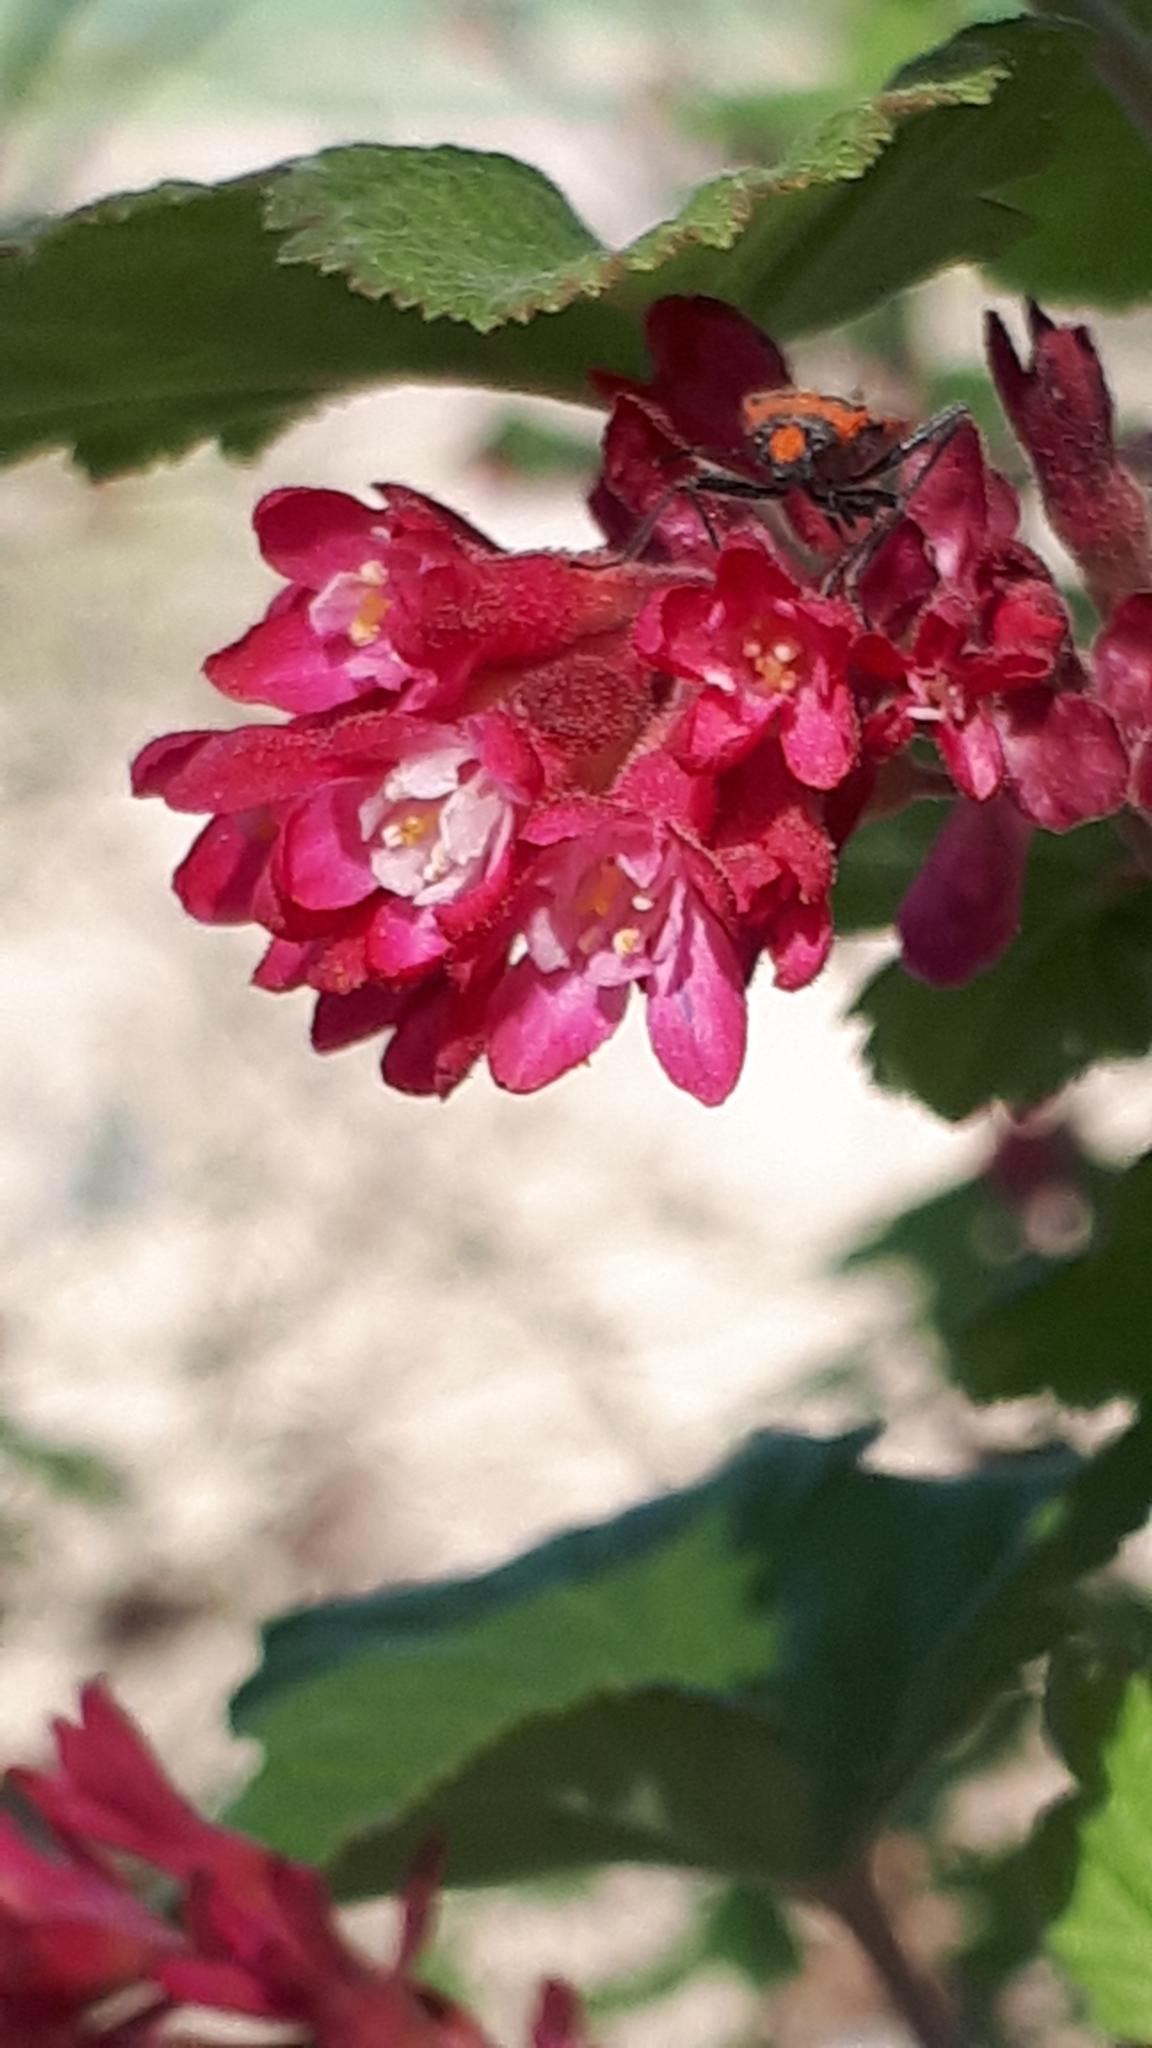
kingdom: Plantae
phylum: Tracheophyta
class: Magnoliopsida
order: Saxifragales
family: Grossulariaceae
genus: Ribes
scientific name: Ribes sanguineum
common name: Flowering currant
